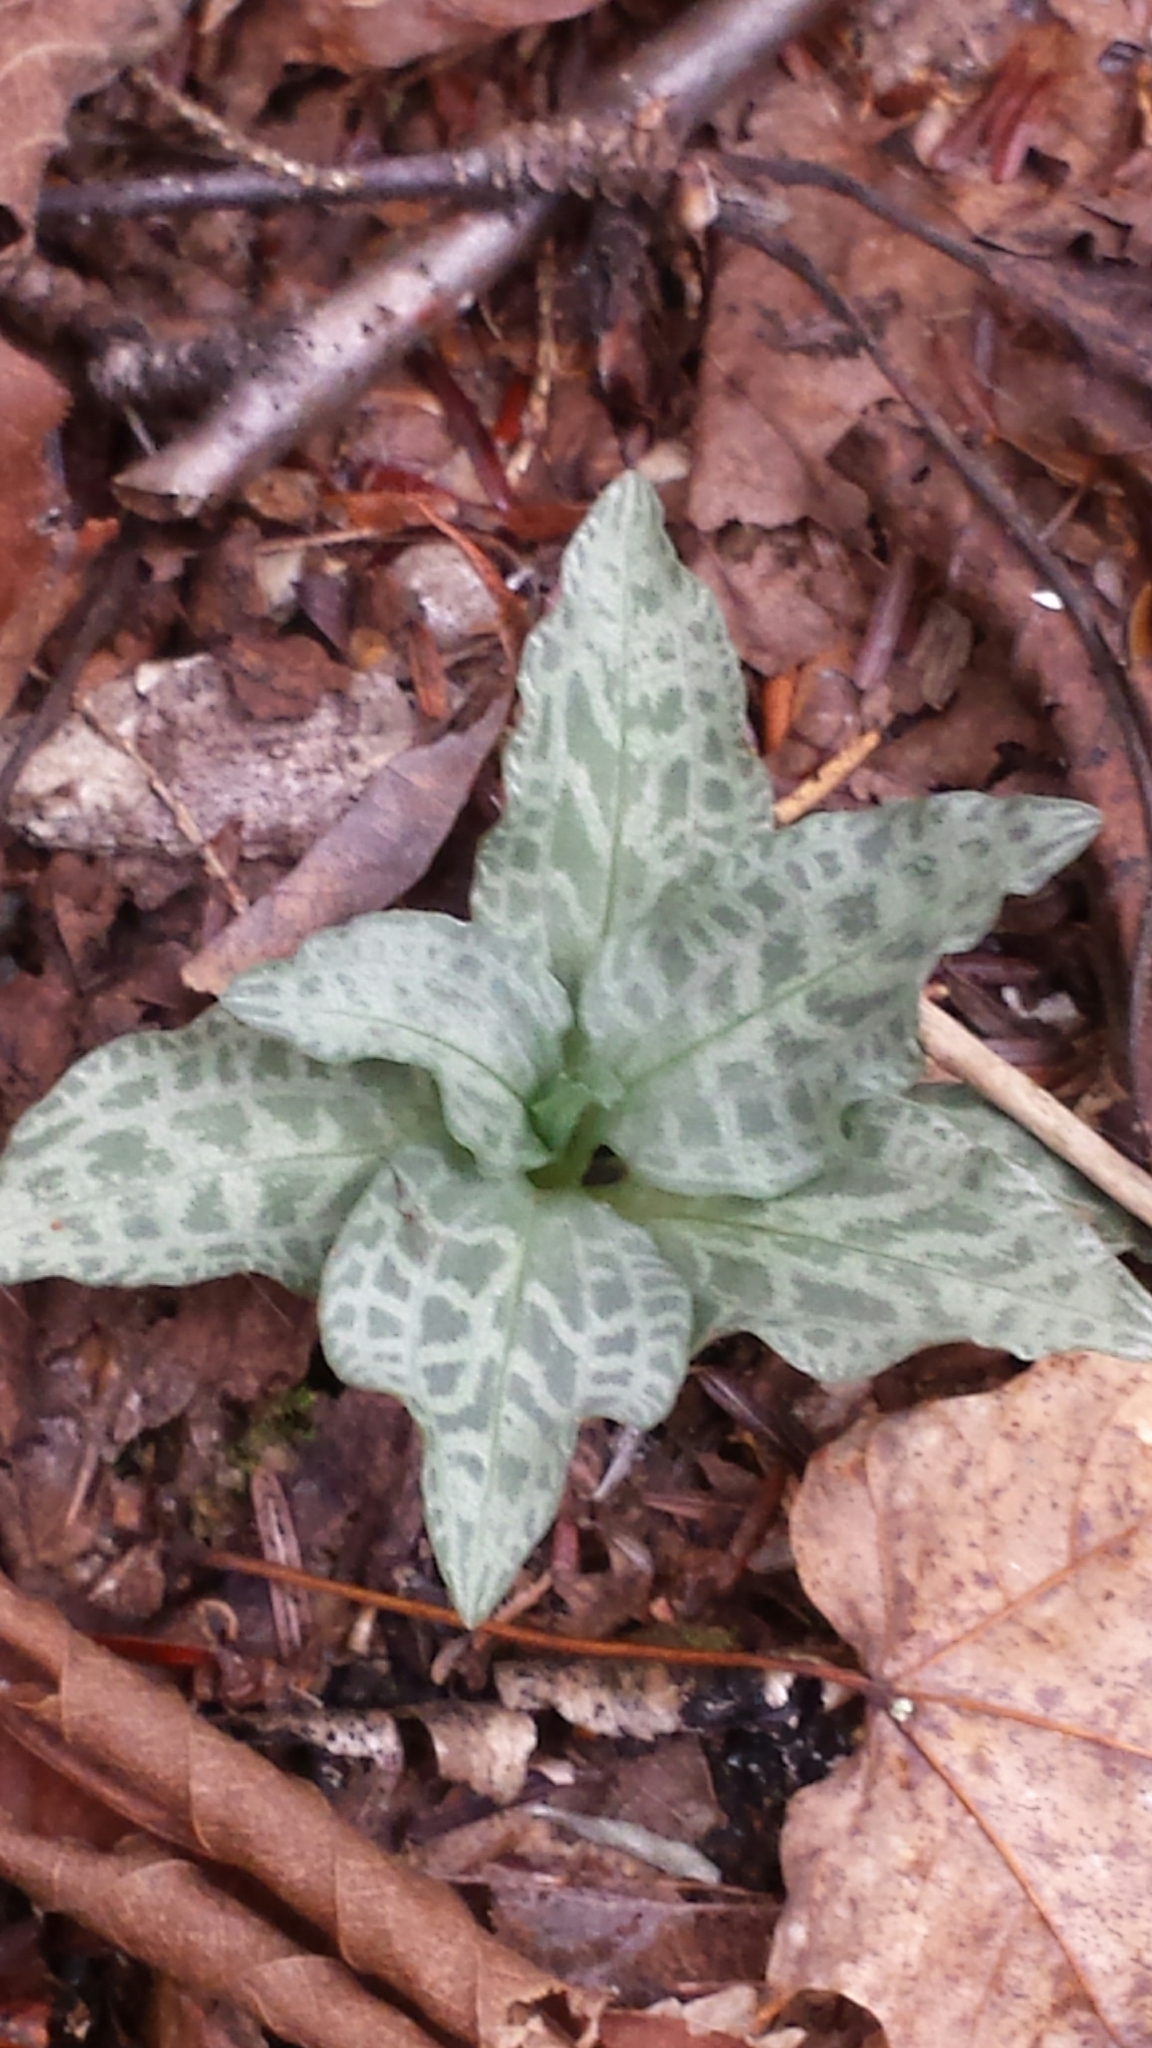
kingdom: Plantae
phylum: Tracheophyta
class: Liliopsida
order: Asparagales
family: Orchidaceae
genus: Goodyera
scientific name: Goodyera tesselata
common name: Checkered rattlesnake-plantain
